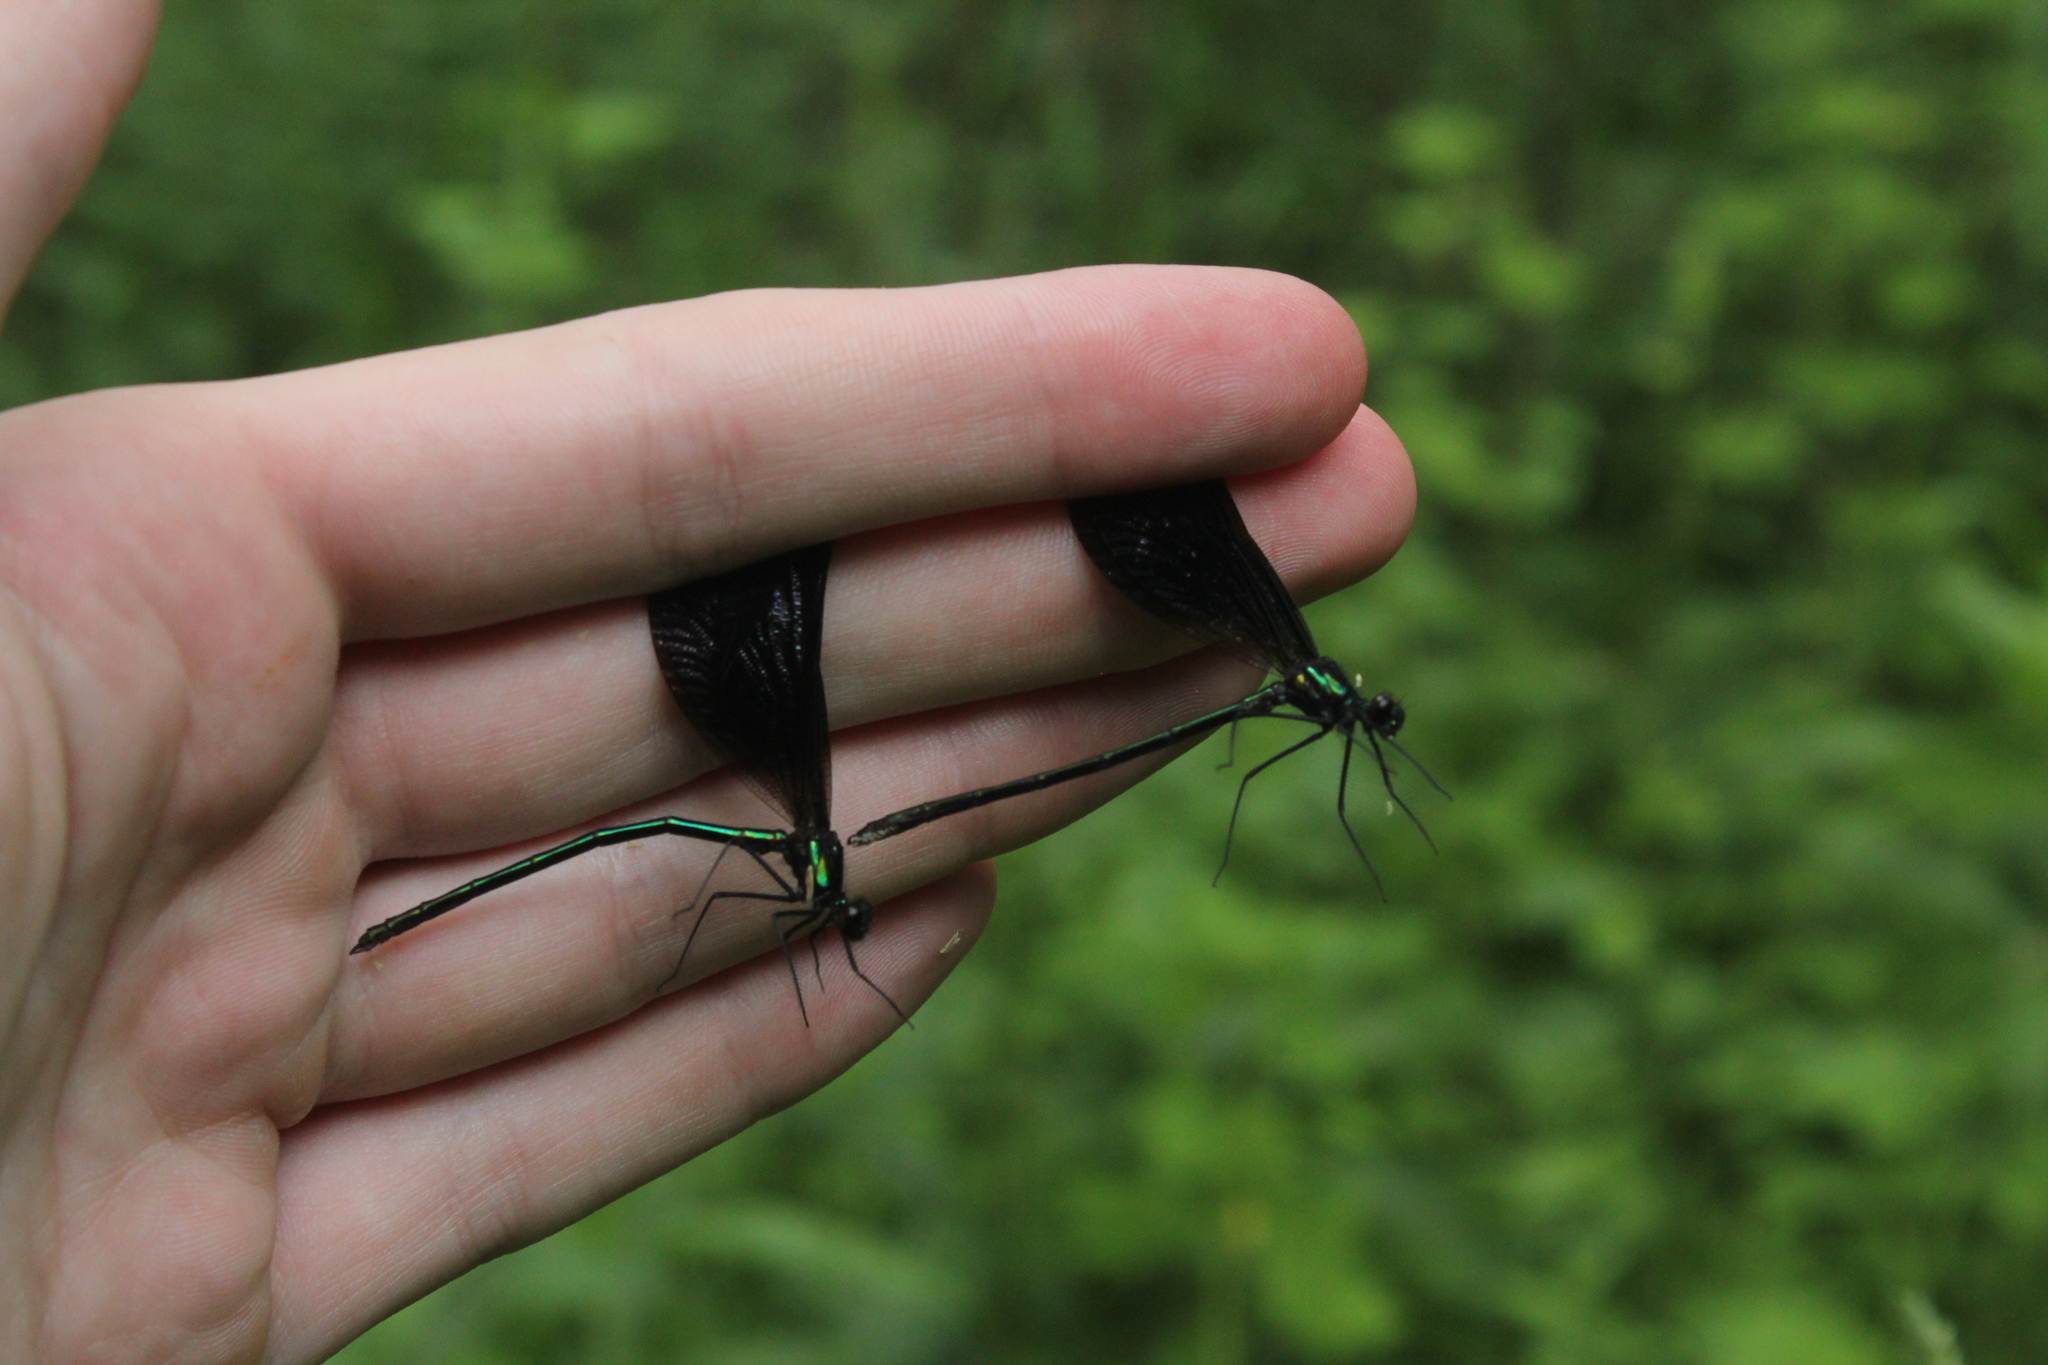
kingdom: Animalia
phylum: Arthropoda
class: Insecta
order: Odonata
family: Calopterygidae
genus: Calopteryx
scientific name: Calopteryx maculata
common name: Ebony jewelwing
